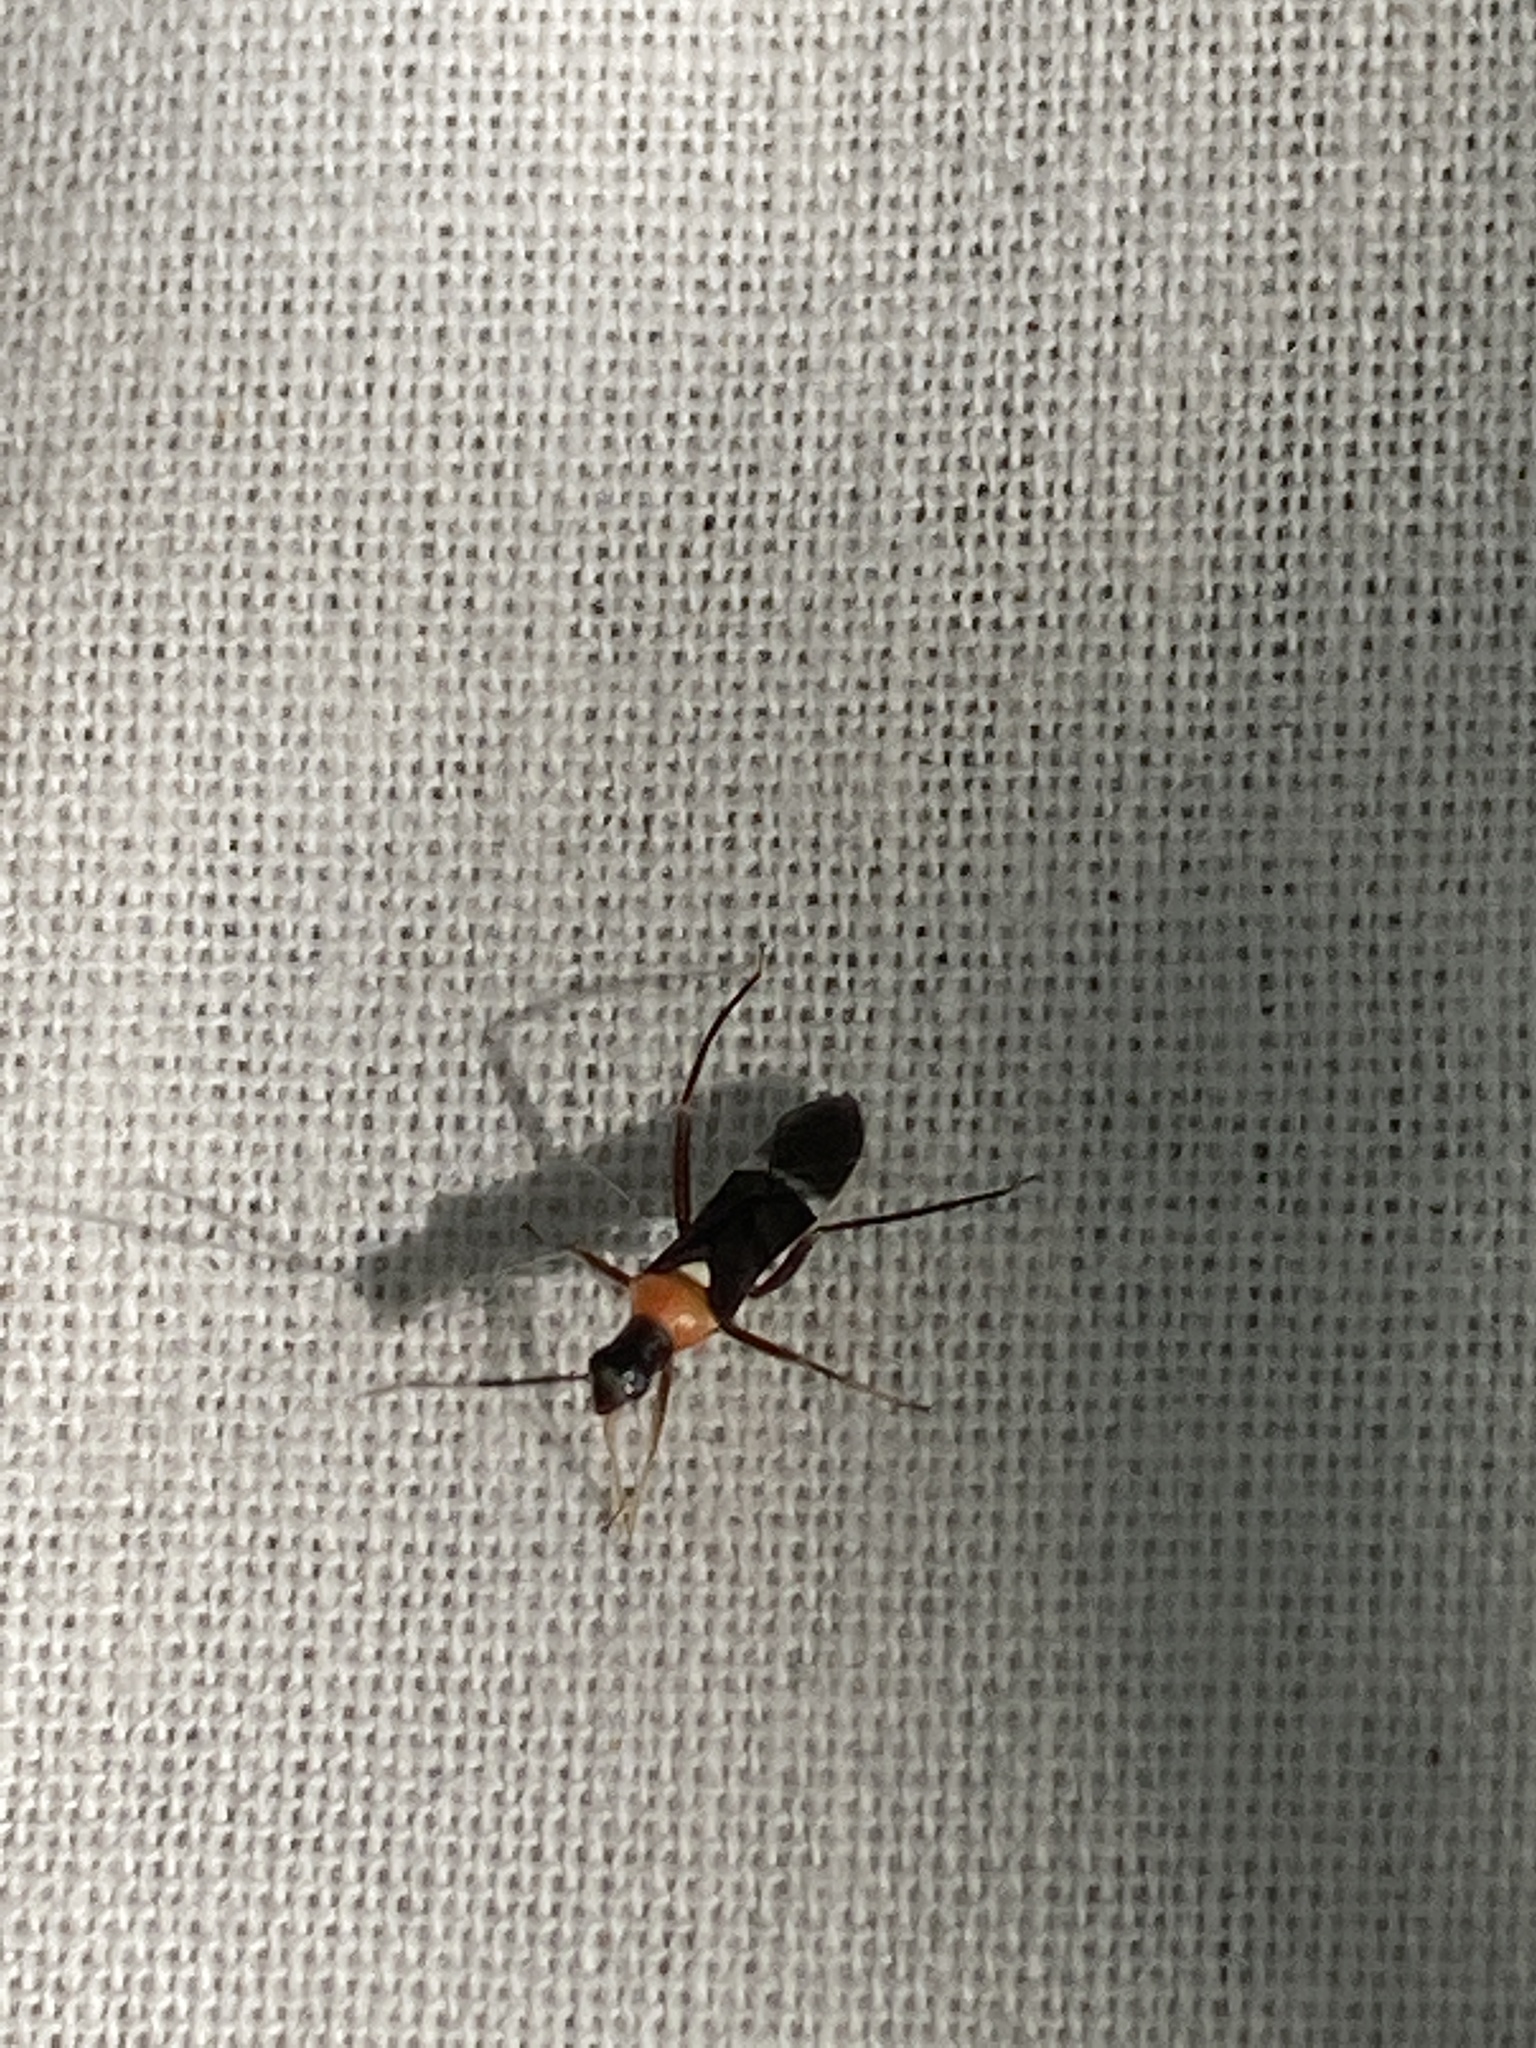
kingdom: Animalia
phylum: Arthropoda
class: Insecta
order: Hemiptera
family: Miridae
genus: Pseudoxenetus
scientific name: Pseudoxenetus regalis
